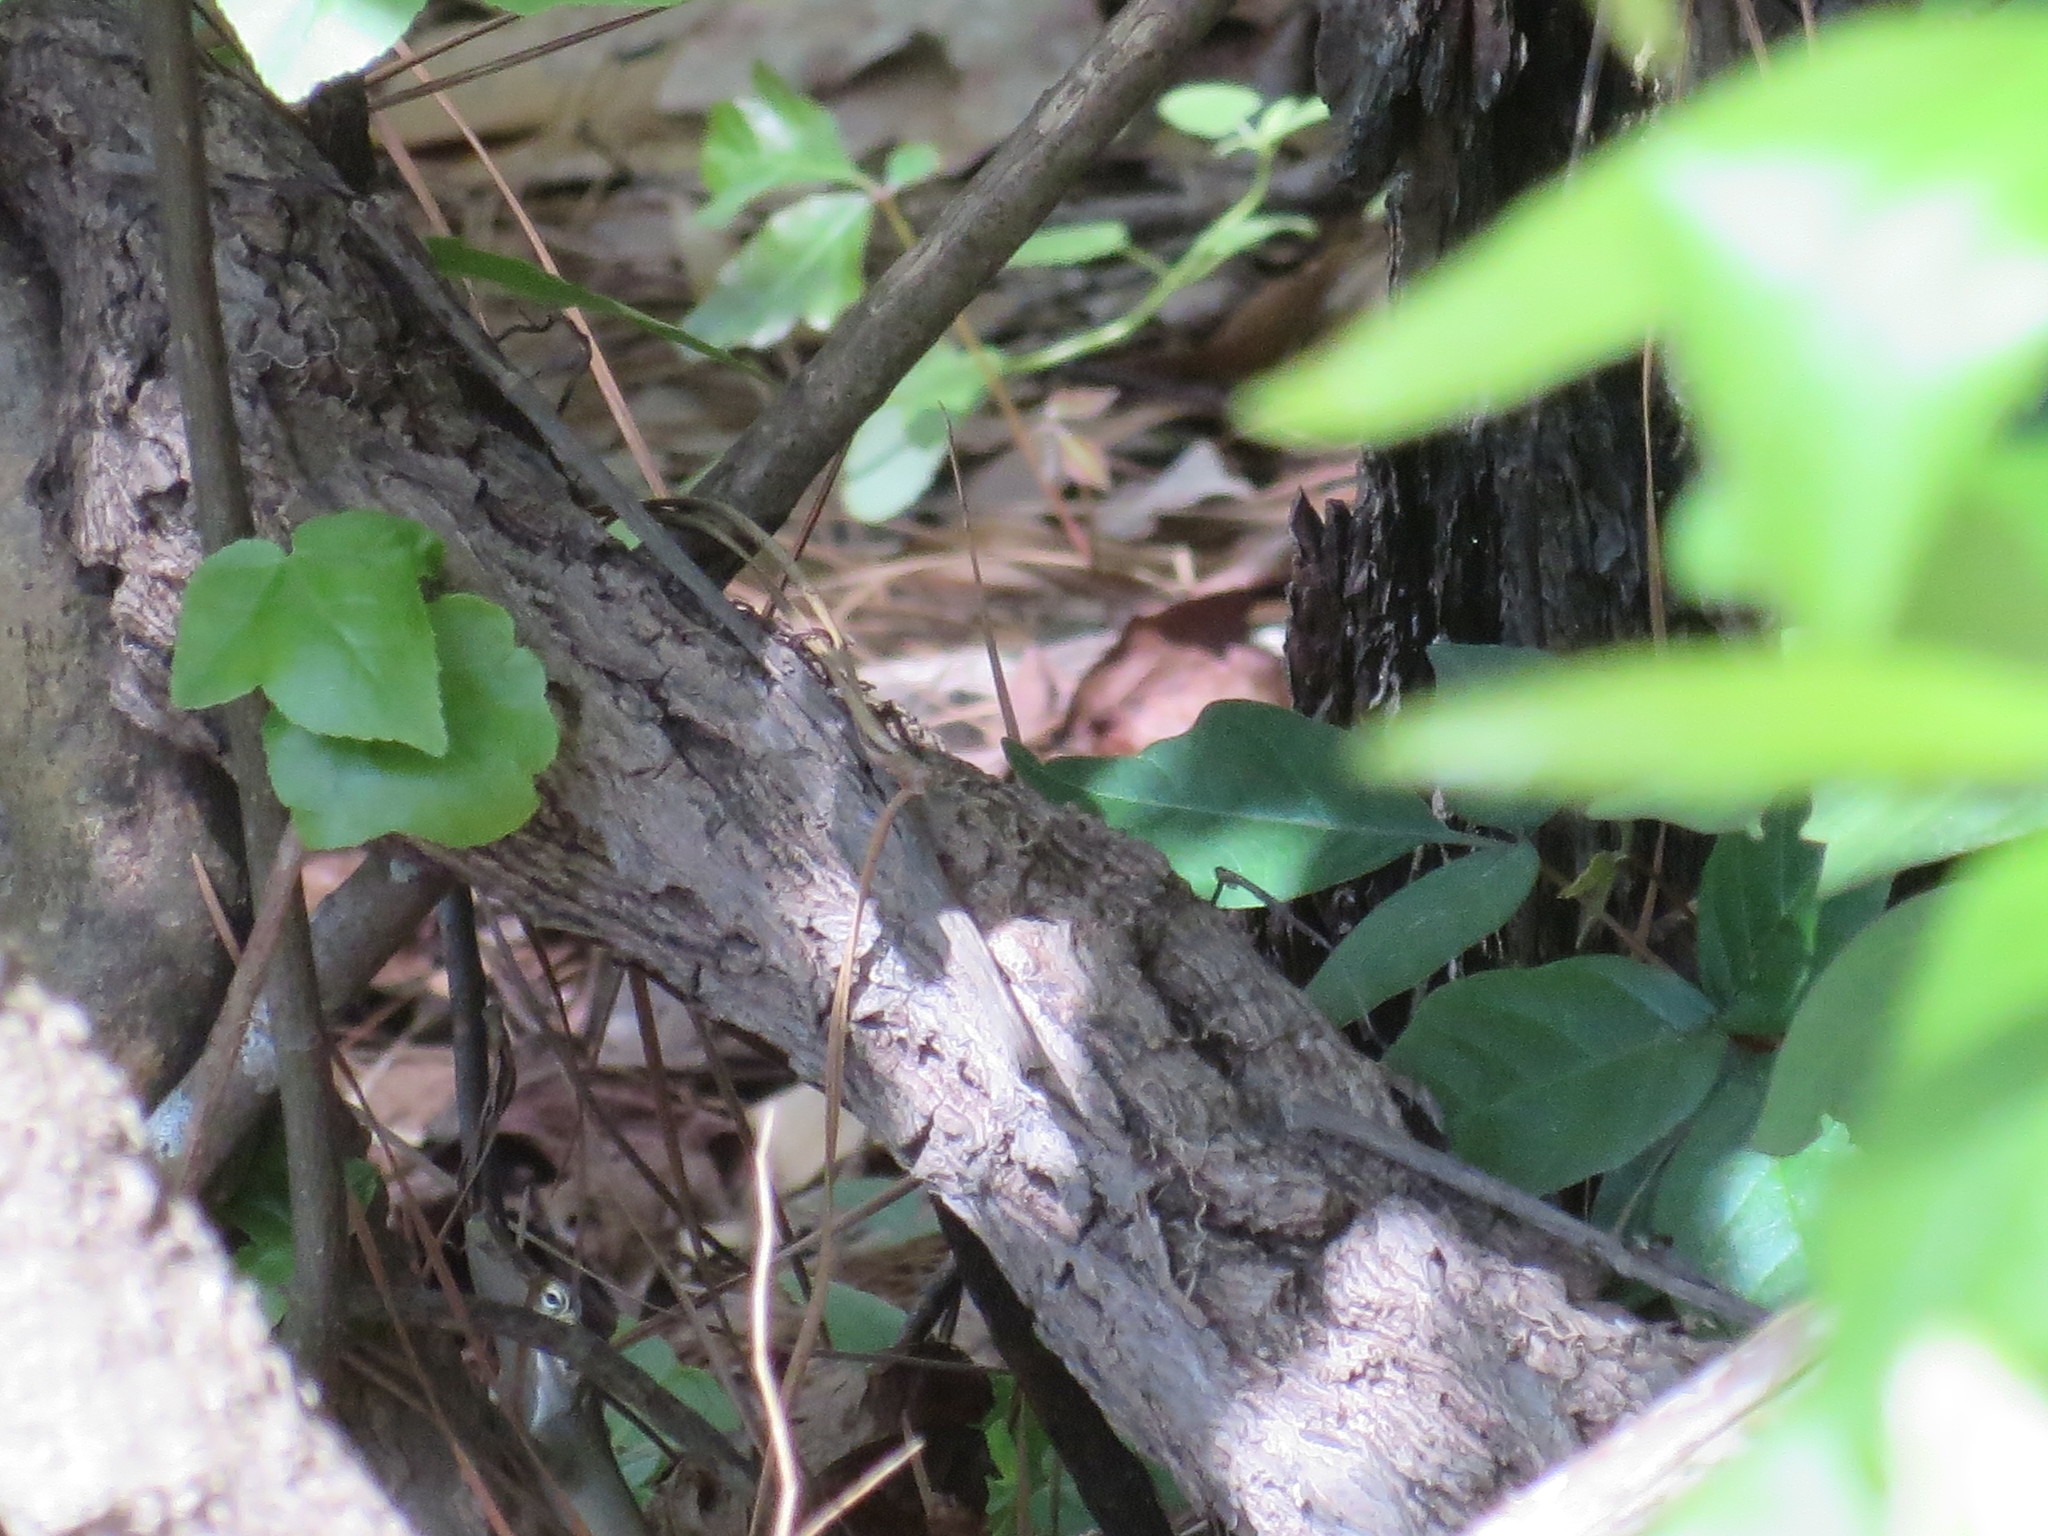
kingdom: Plantae
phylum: Tracheophyta
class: Magnoliopsida
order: Sapindales
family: Anacardiaceae
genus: Toxicodendron
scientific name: Toxicodendron radicans
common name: Poison ivy
